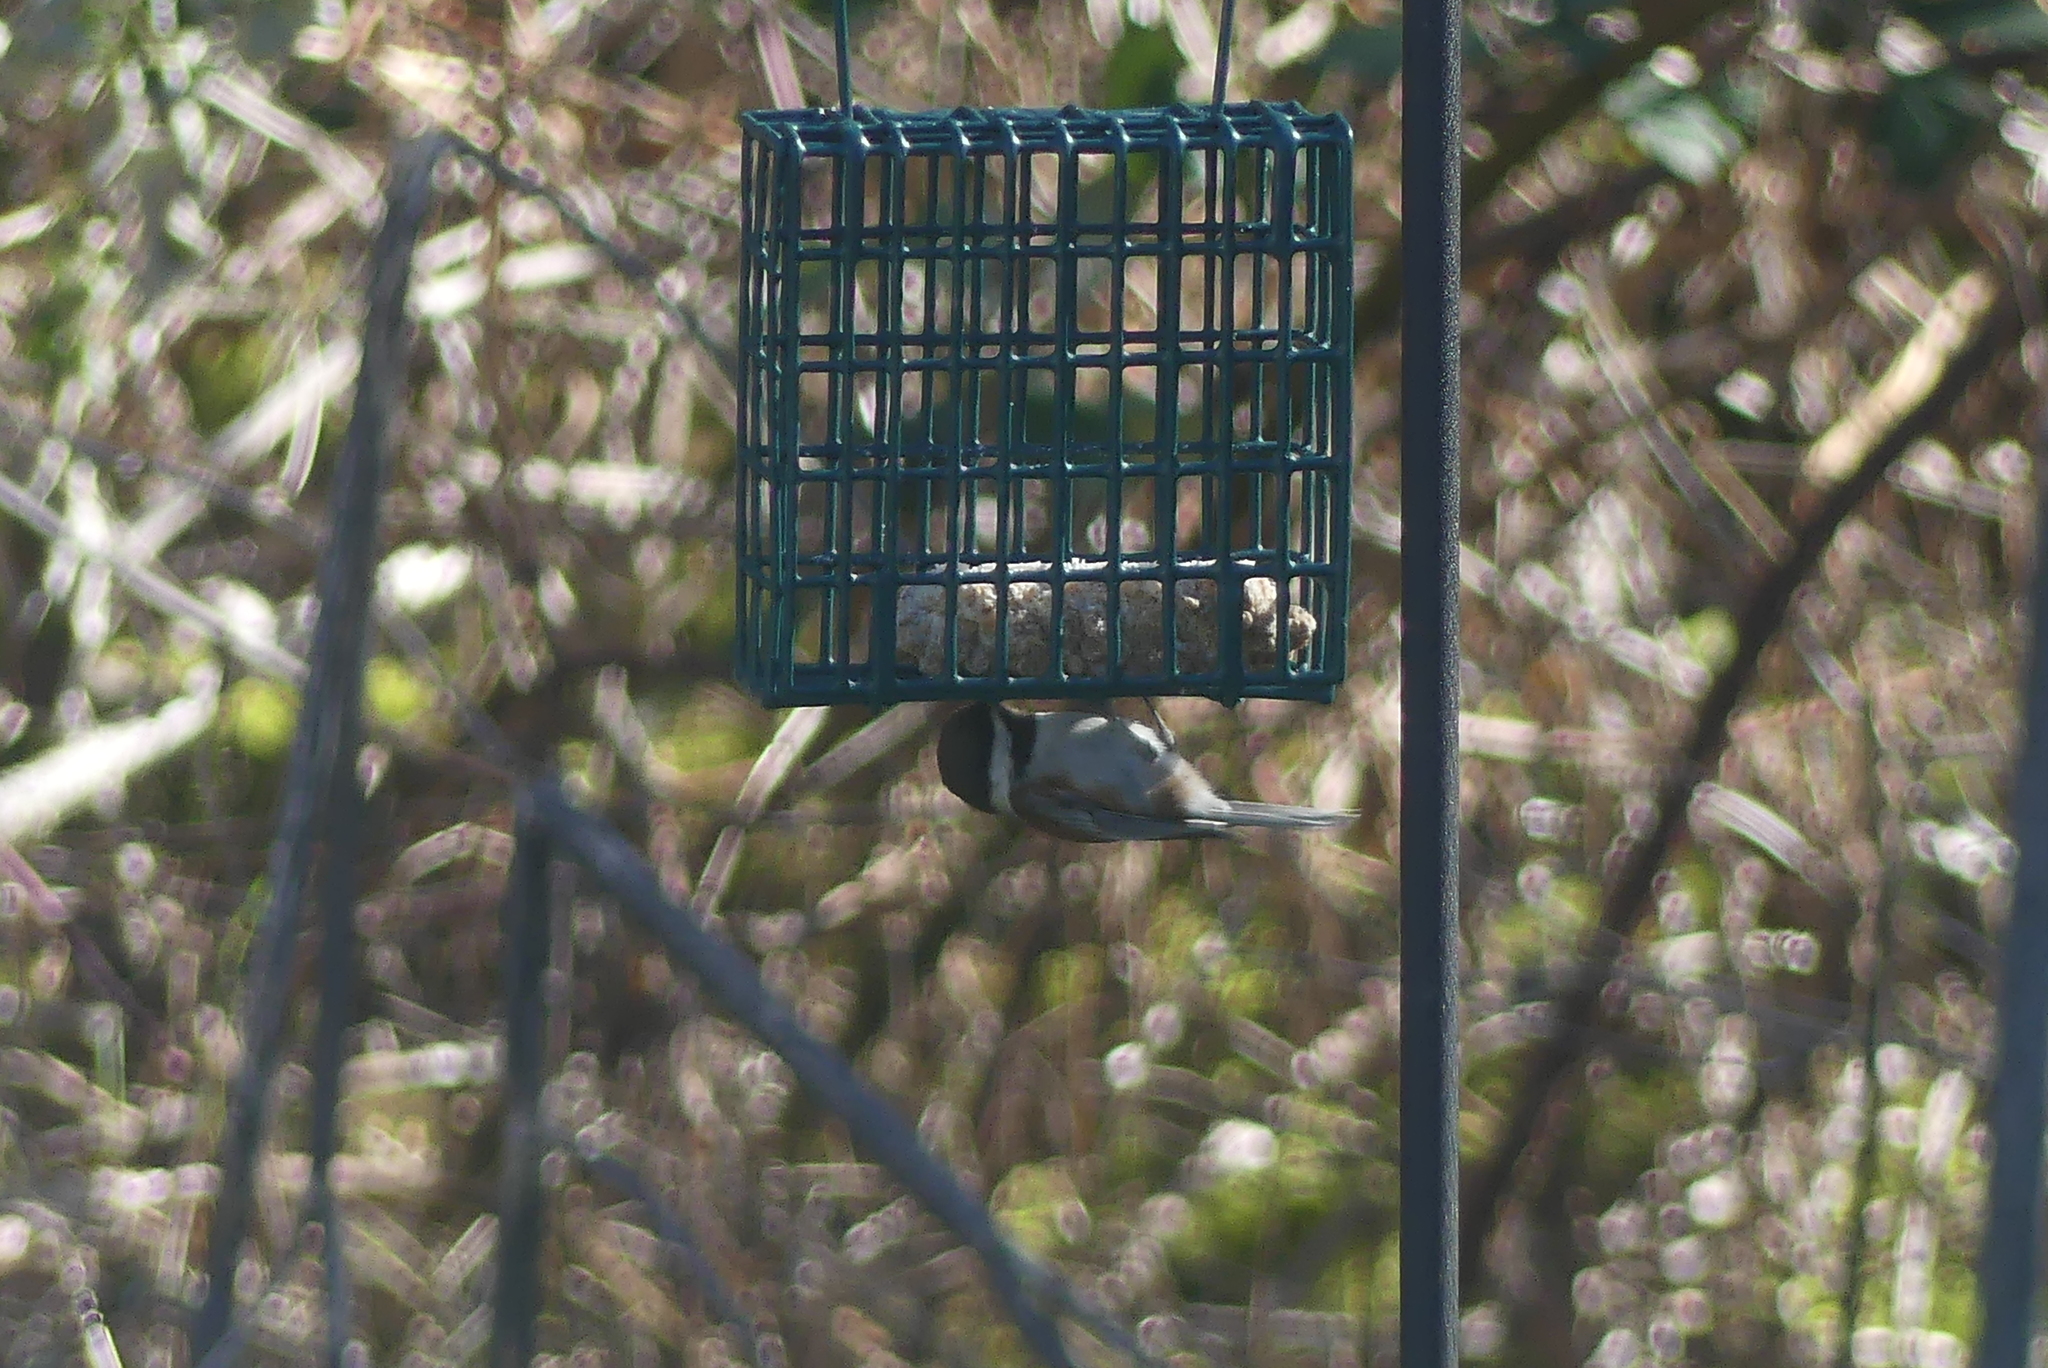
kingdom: Animalia
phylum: Chordata
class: Aves
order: Passeriformes
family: Paridae
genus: Poecile
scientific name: Poecile rufescens
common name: Chestnut-backed chickadee
